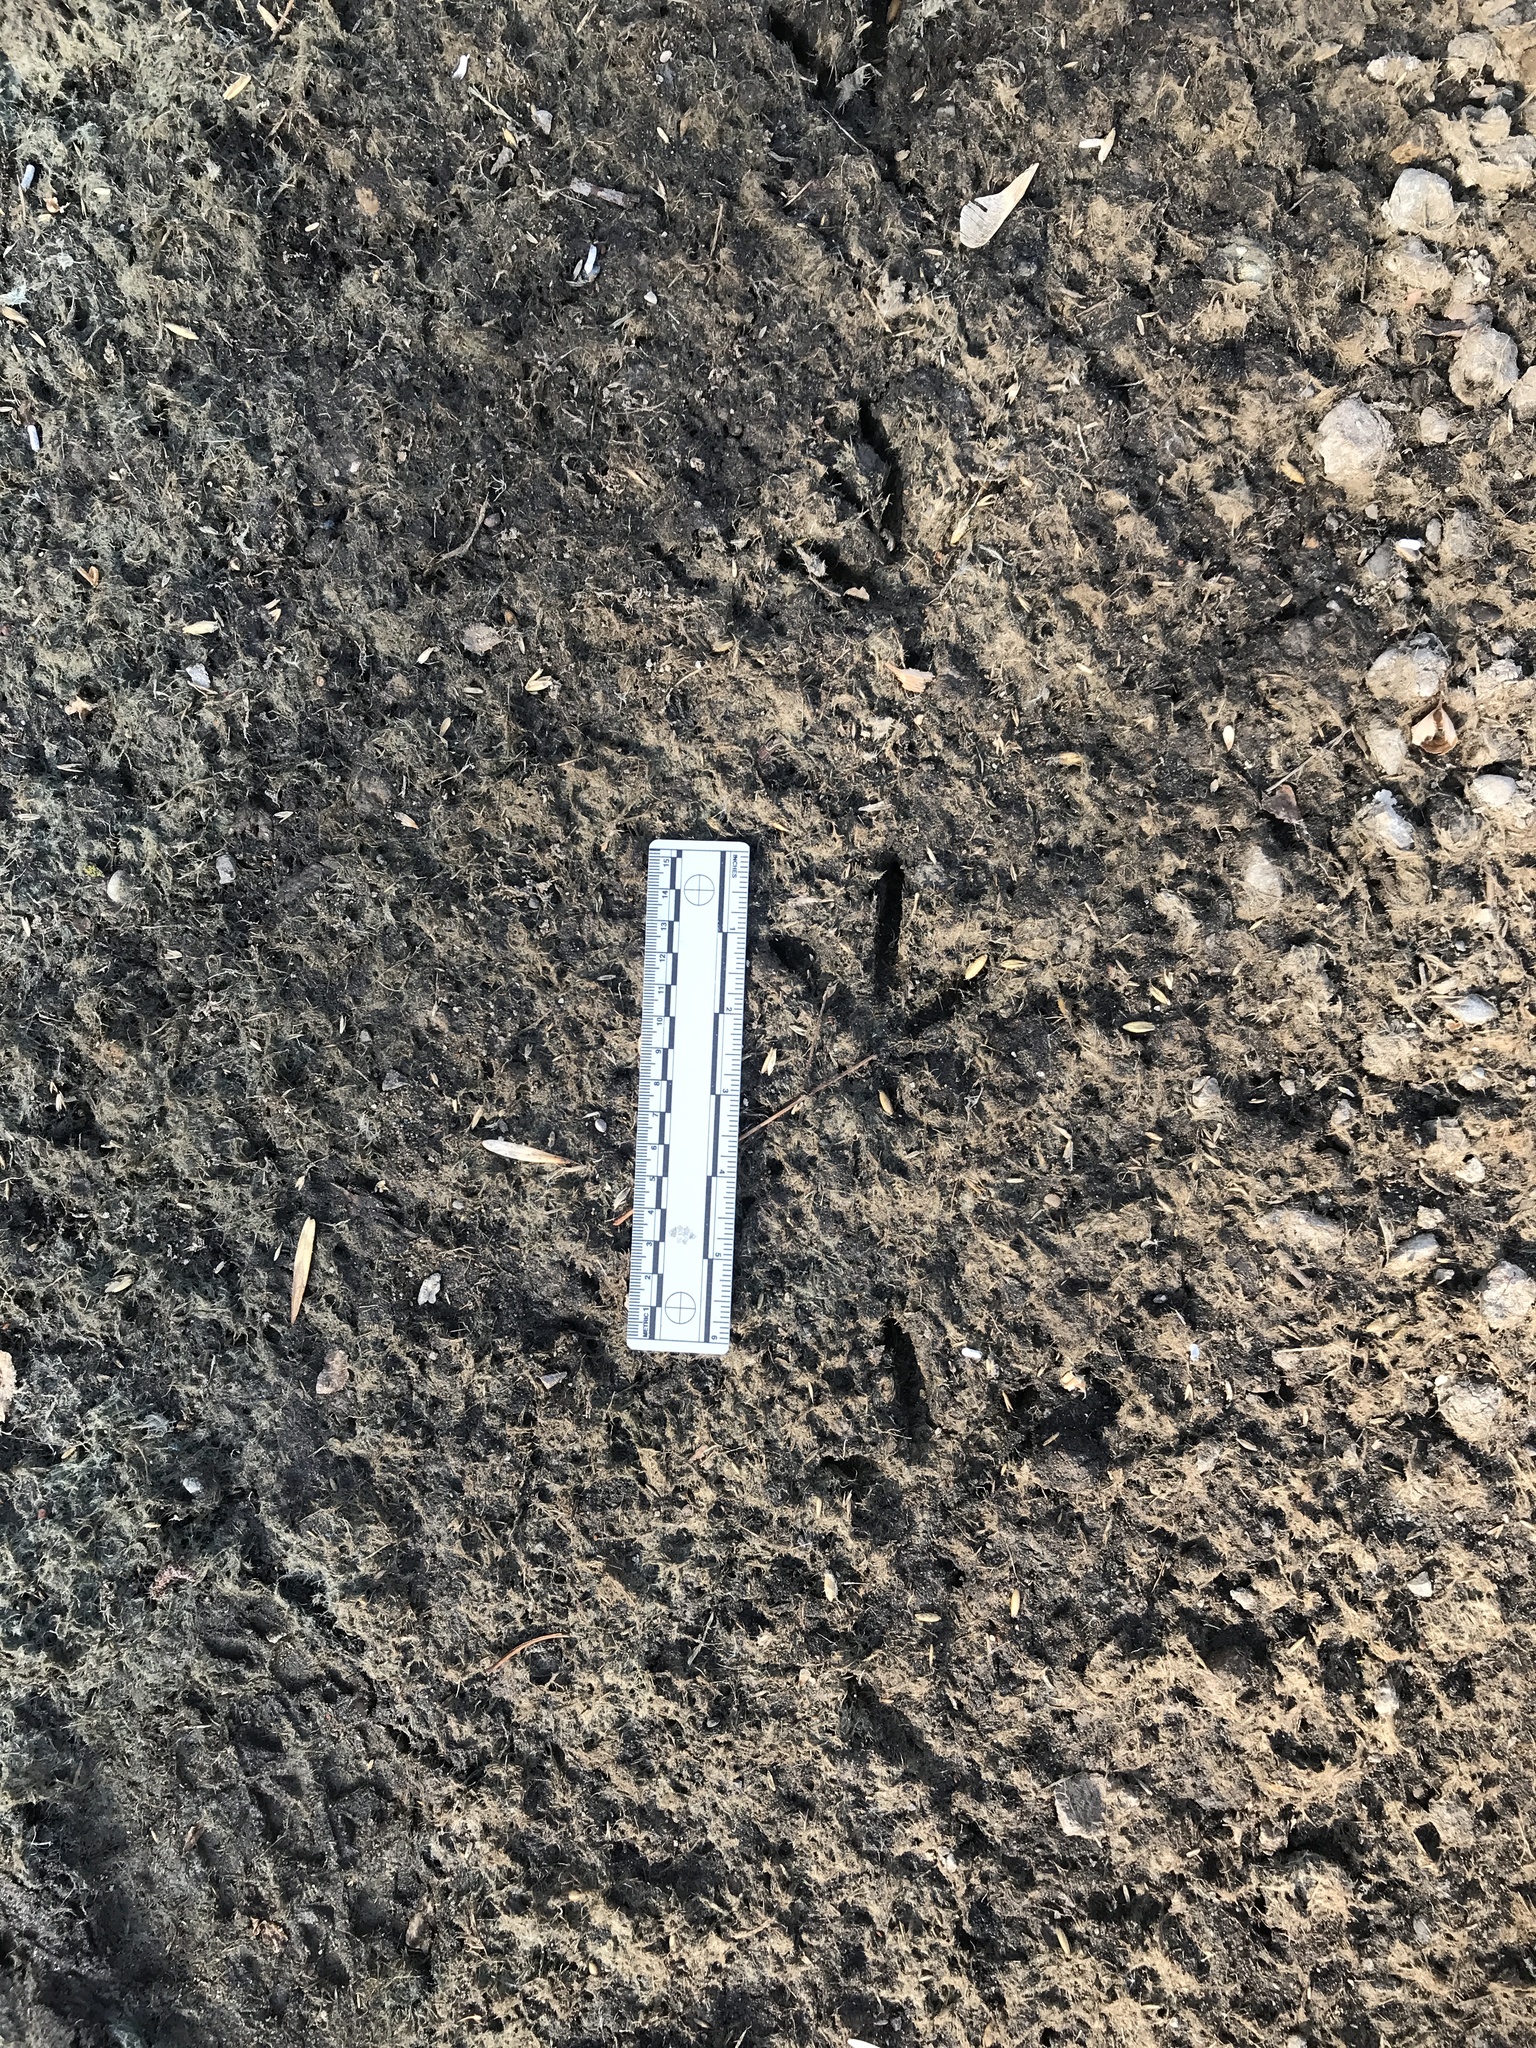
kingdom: Animalia
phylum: Chordata
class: Aves
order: Galliformes
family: Phasianidae
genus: Meleagris
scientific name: Meleagris gallopavo
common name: Wild turkey
